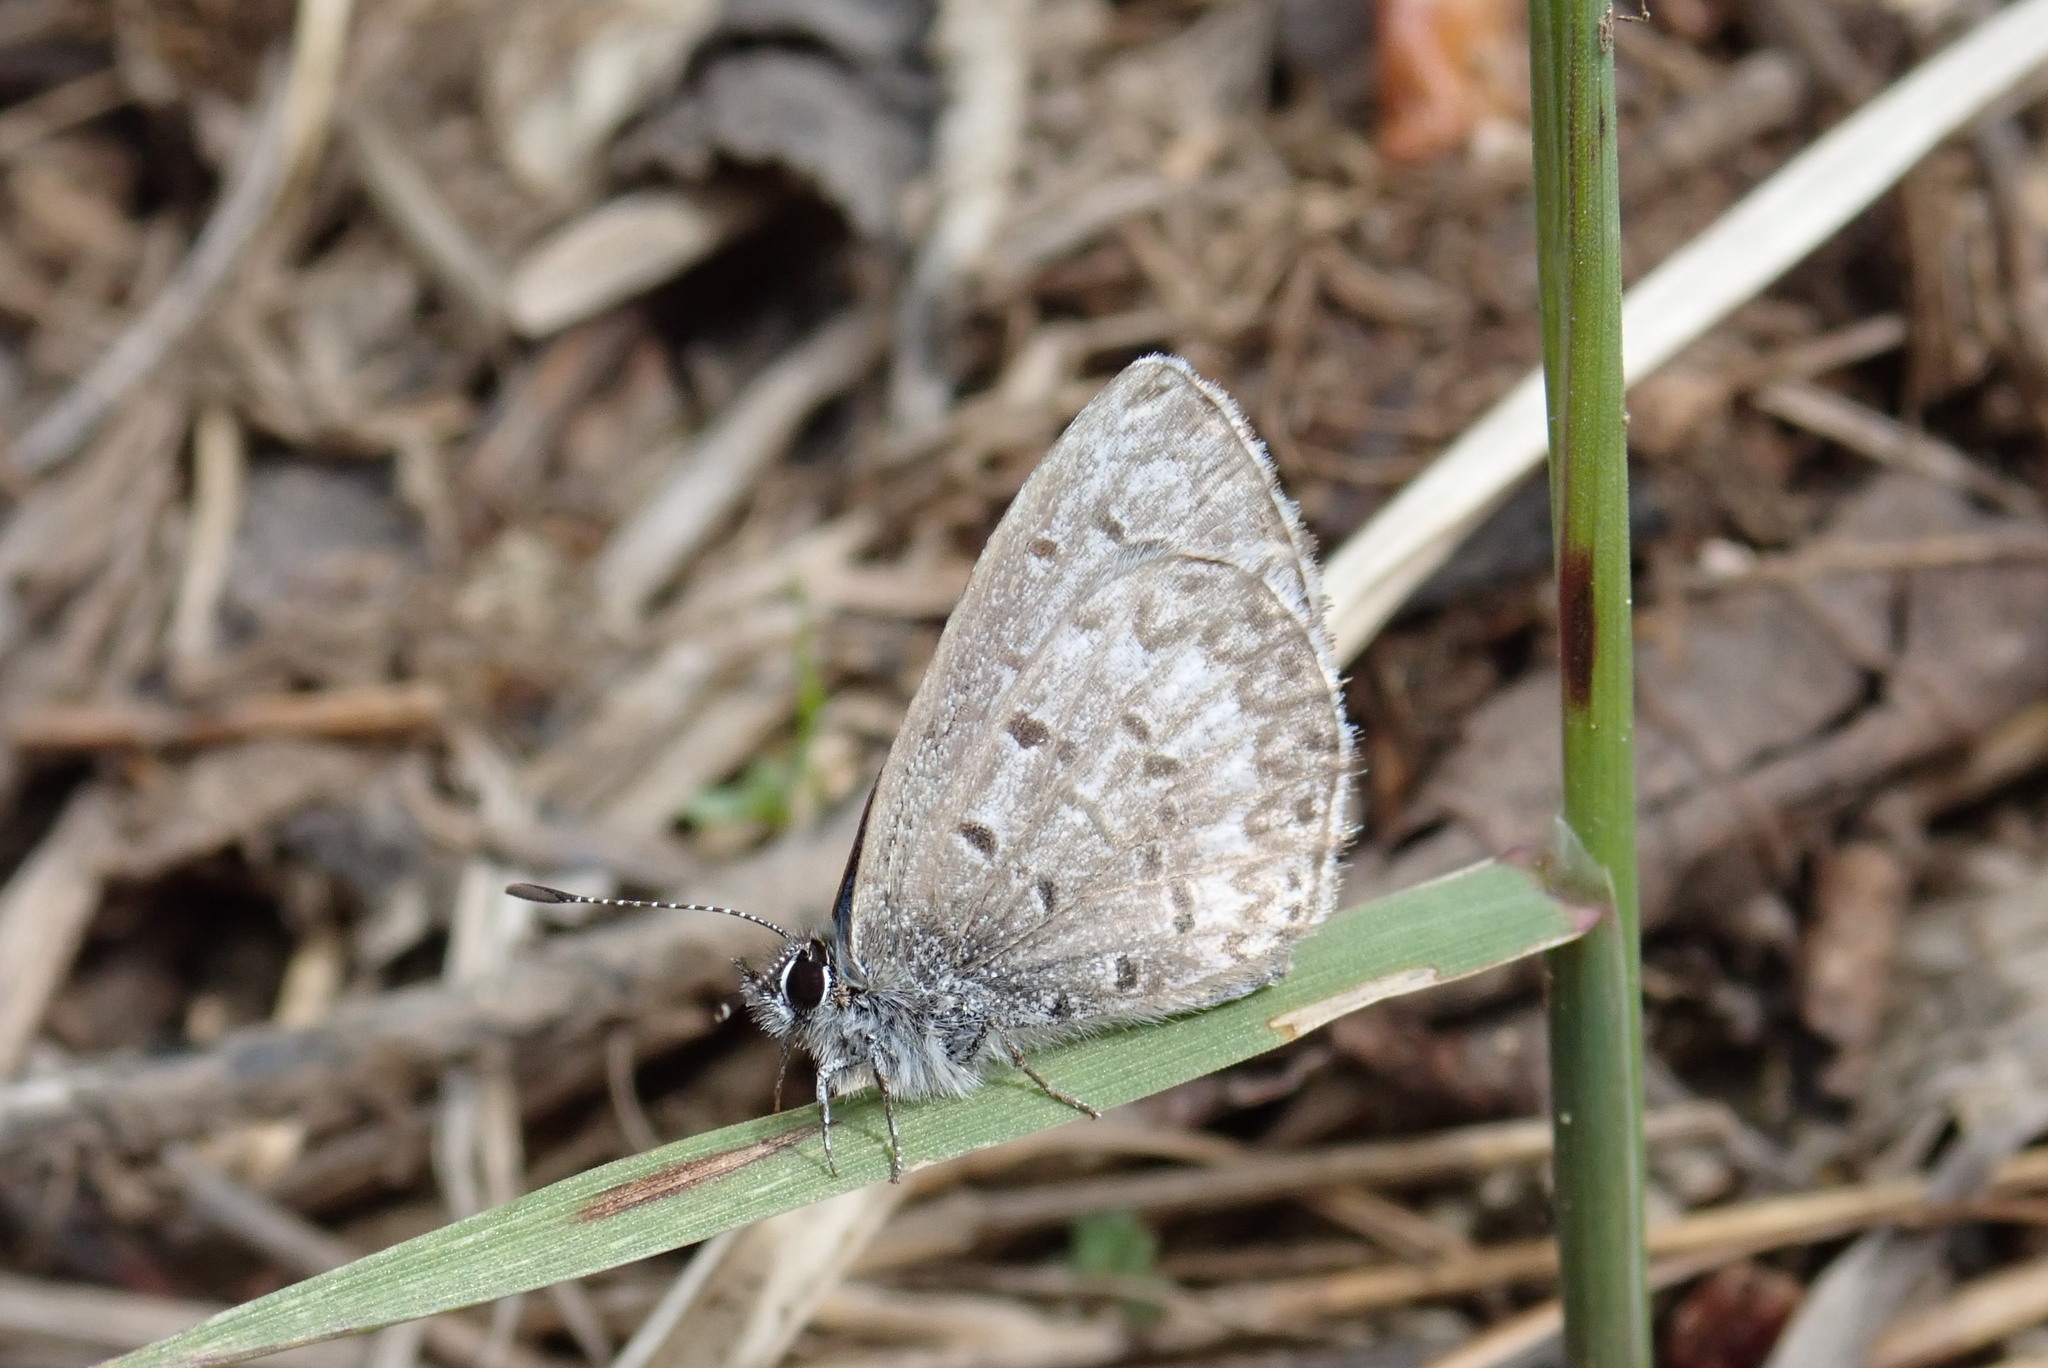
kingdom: Animalia
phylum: Arthropoda
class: Insecta
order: Lepidoptera
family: Lycaenidae
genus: Celastrina
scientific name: Celastrina lucia
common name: Lucia azure
